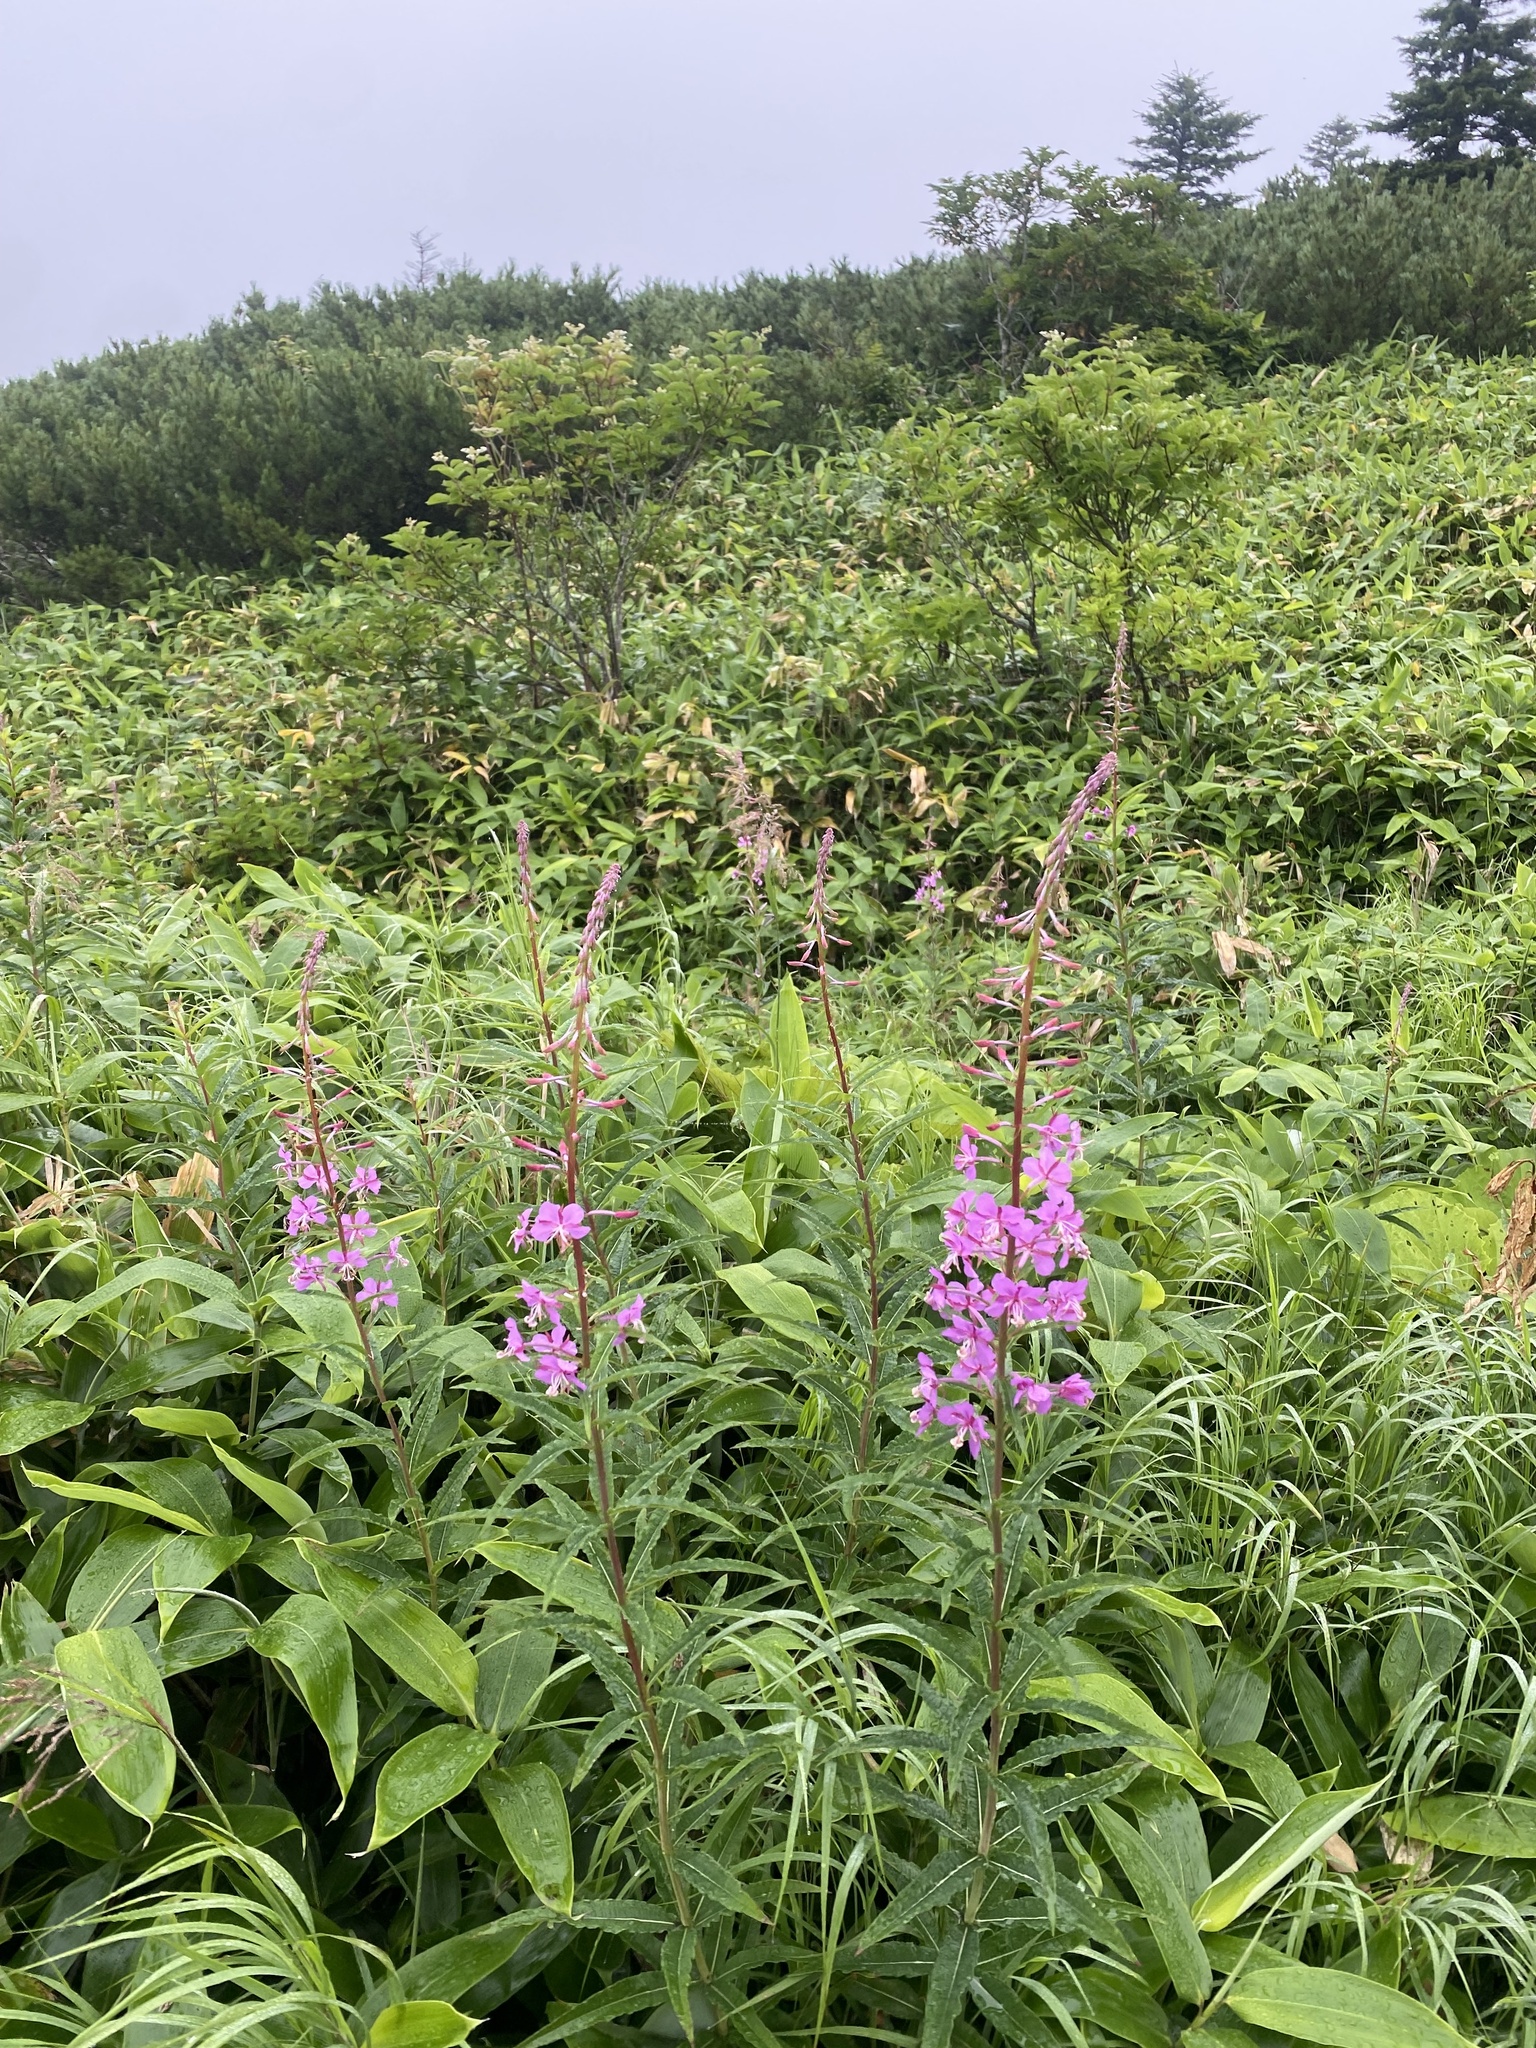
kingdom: Plantae
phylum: Tracheophyta
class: Magnoliopsida
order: Myrtales
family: Onagraceae
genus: Chamaenerion
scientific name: Chamaenerion angustifolium
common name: Fireweed
